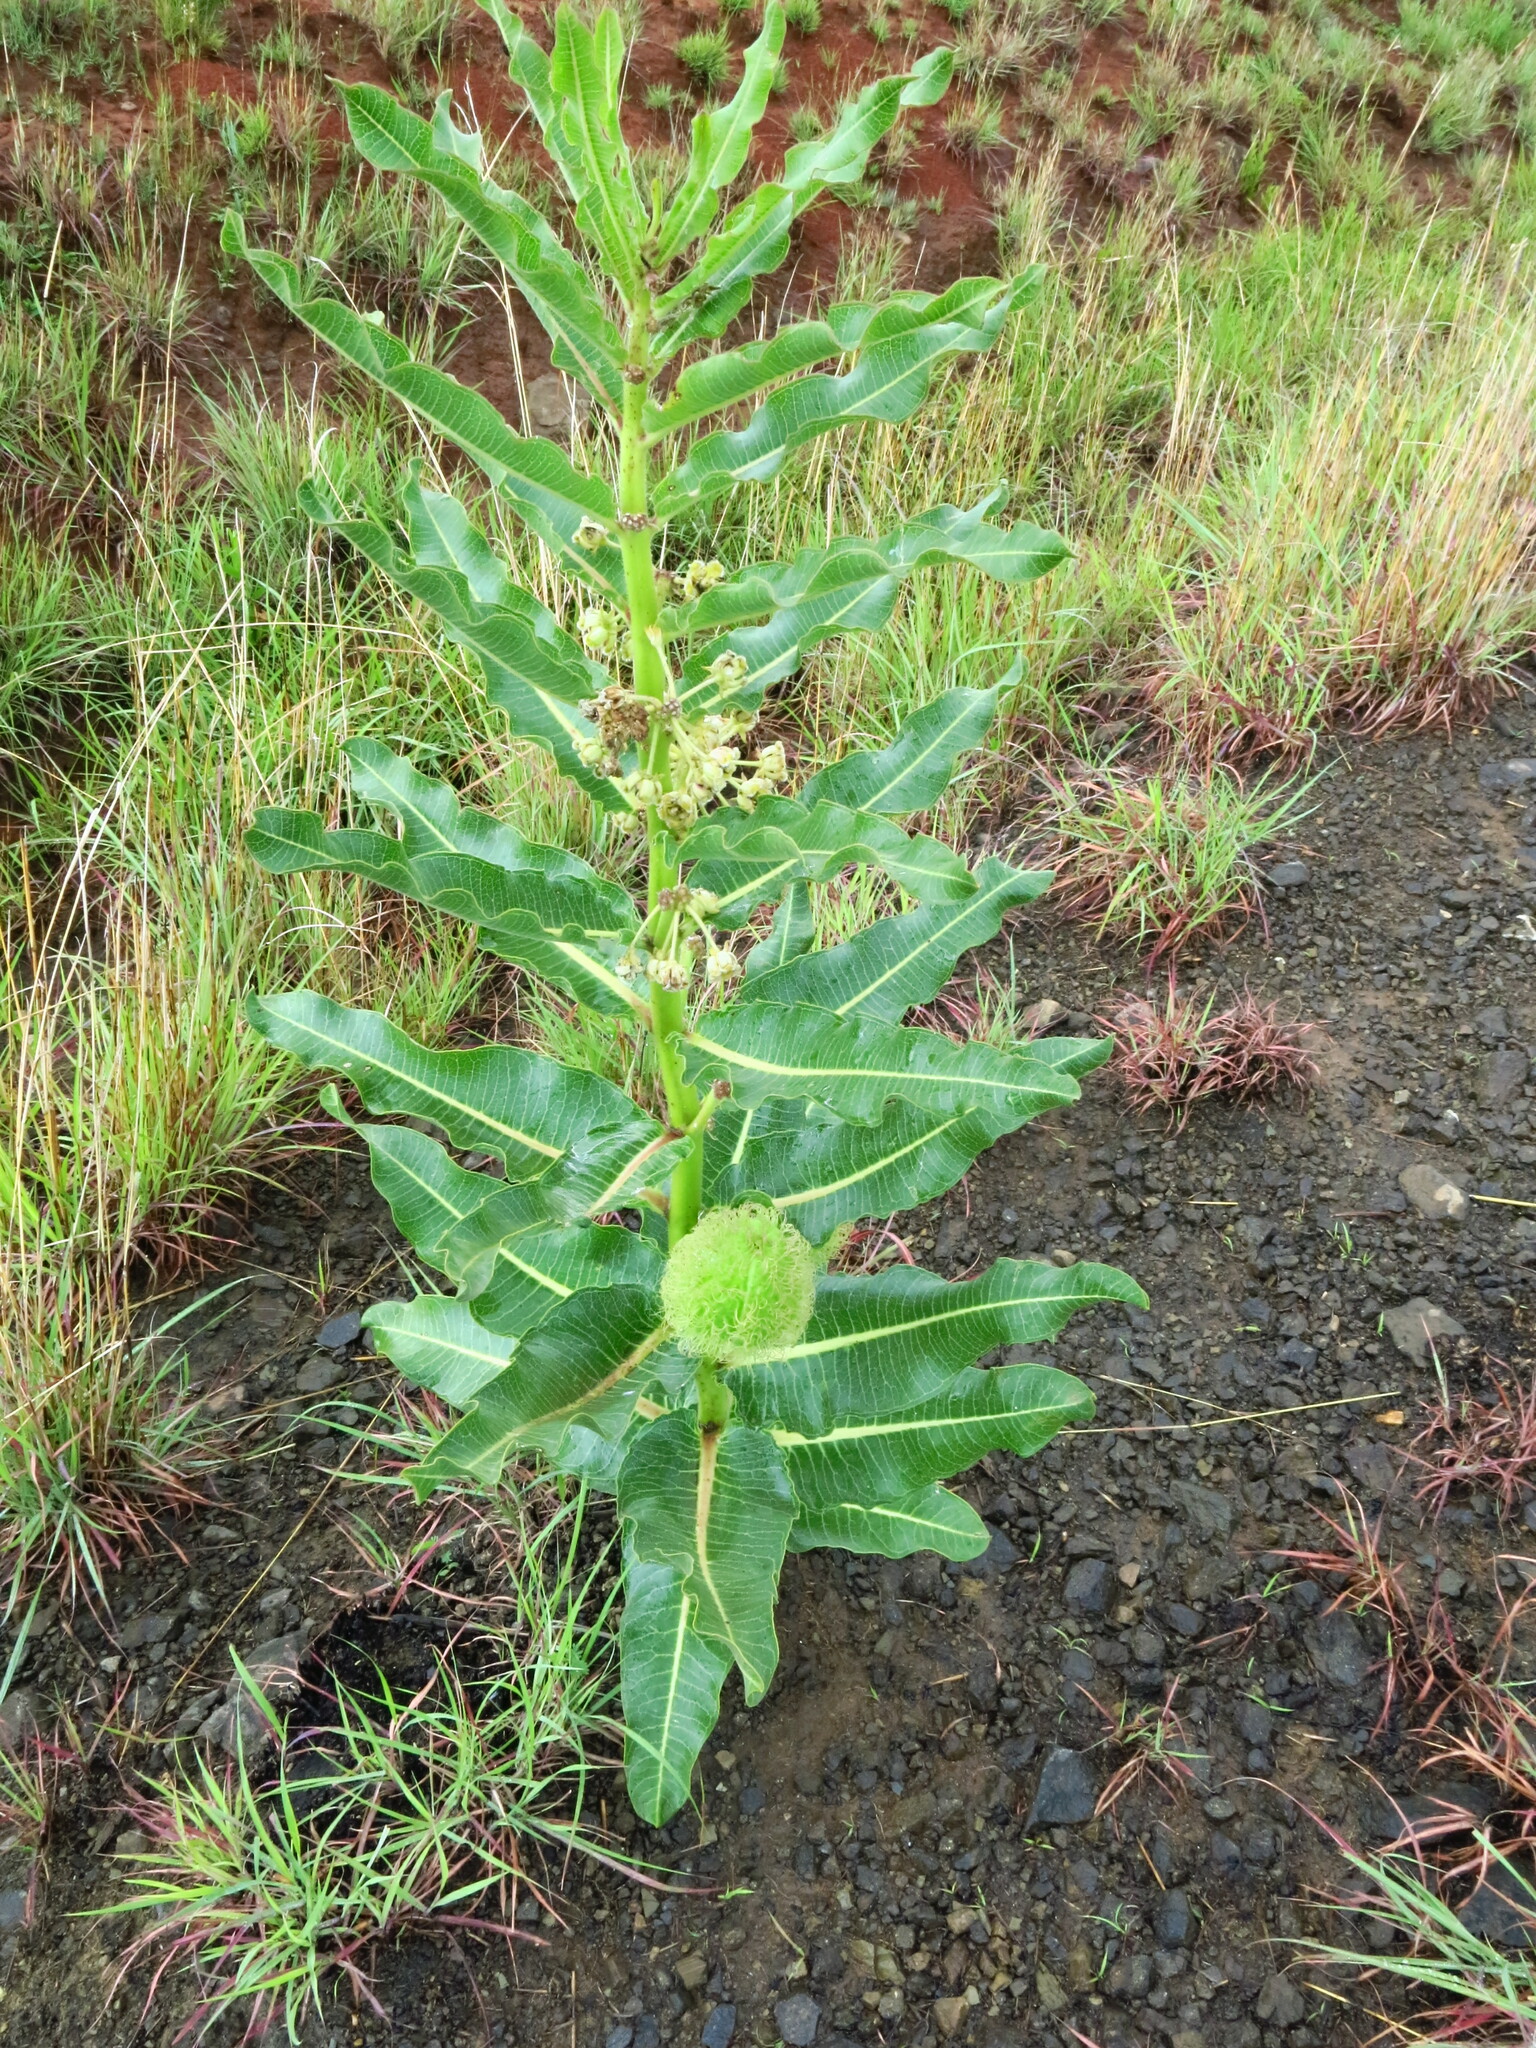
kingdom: Plantae
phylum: Tracheophyta
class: Magnoliopsida
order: Gentianales
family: Apocynaceae
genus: Xysmalobium
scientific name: Xysmalobium undulatum
